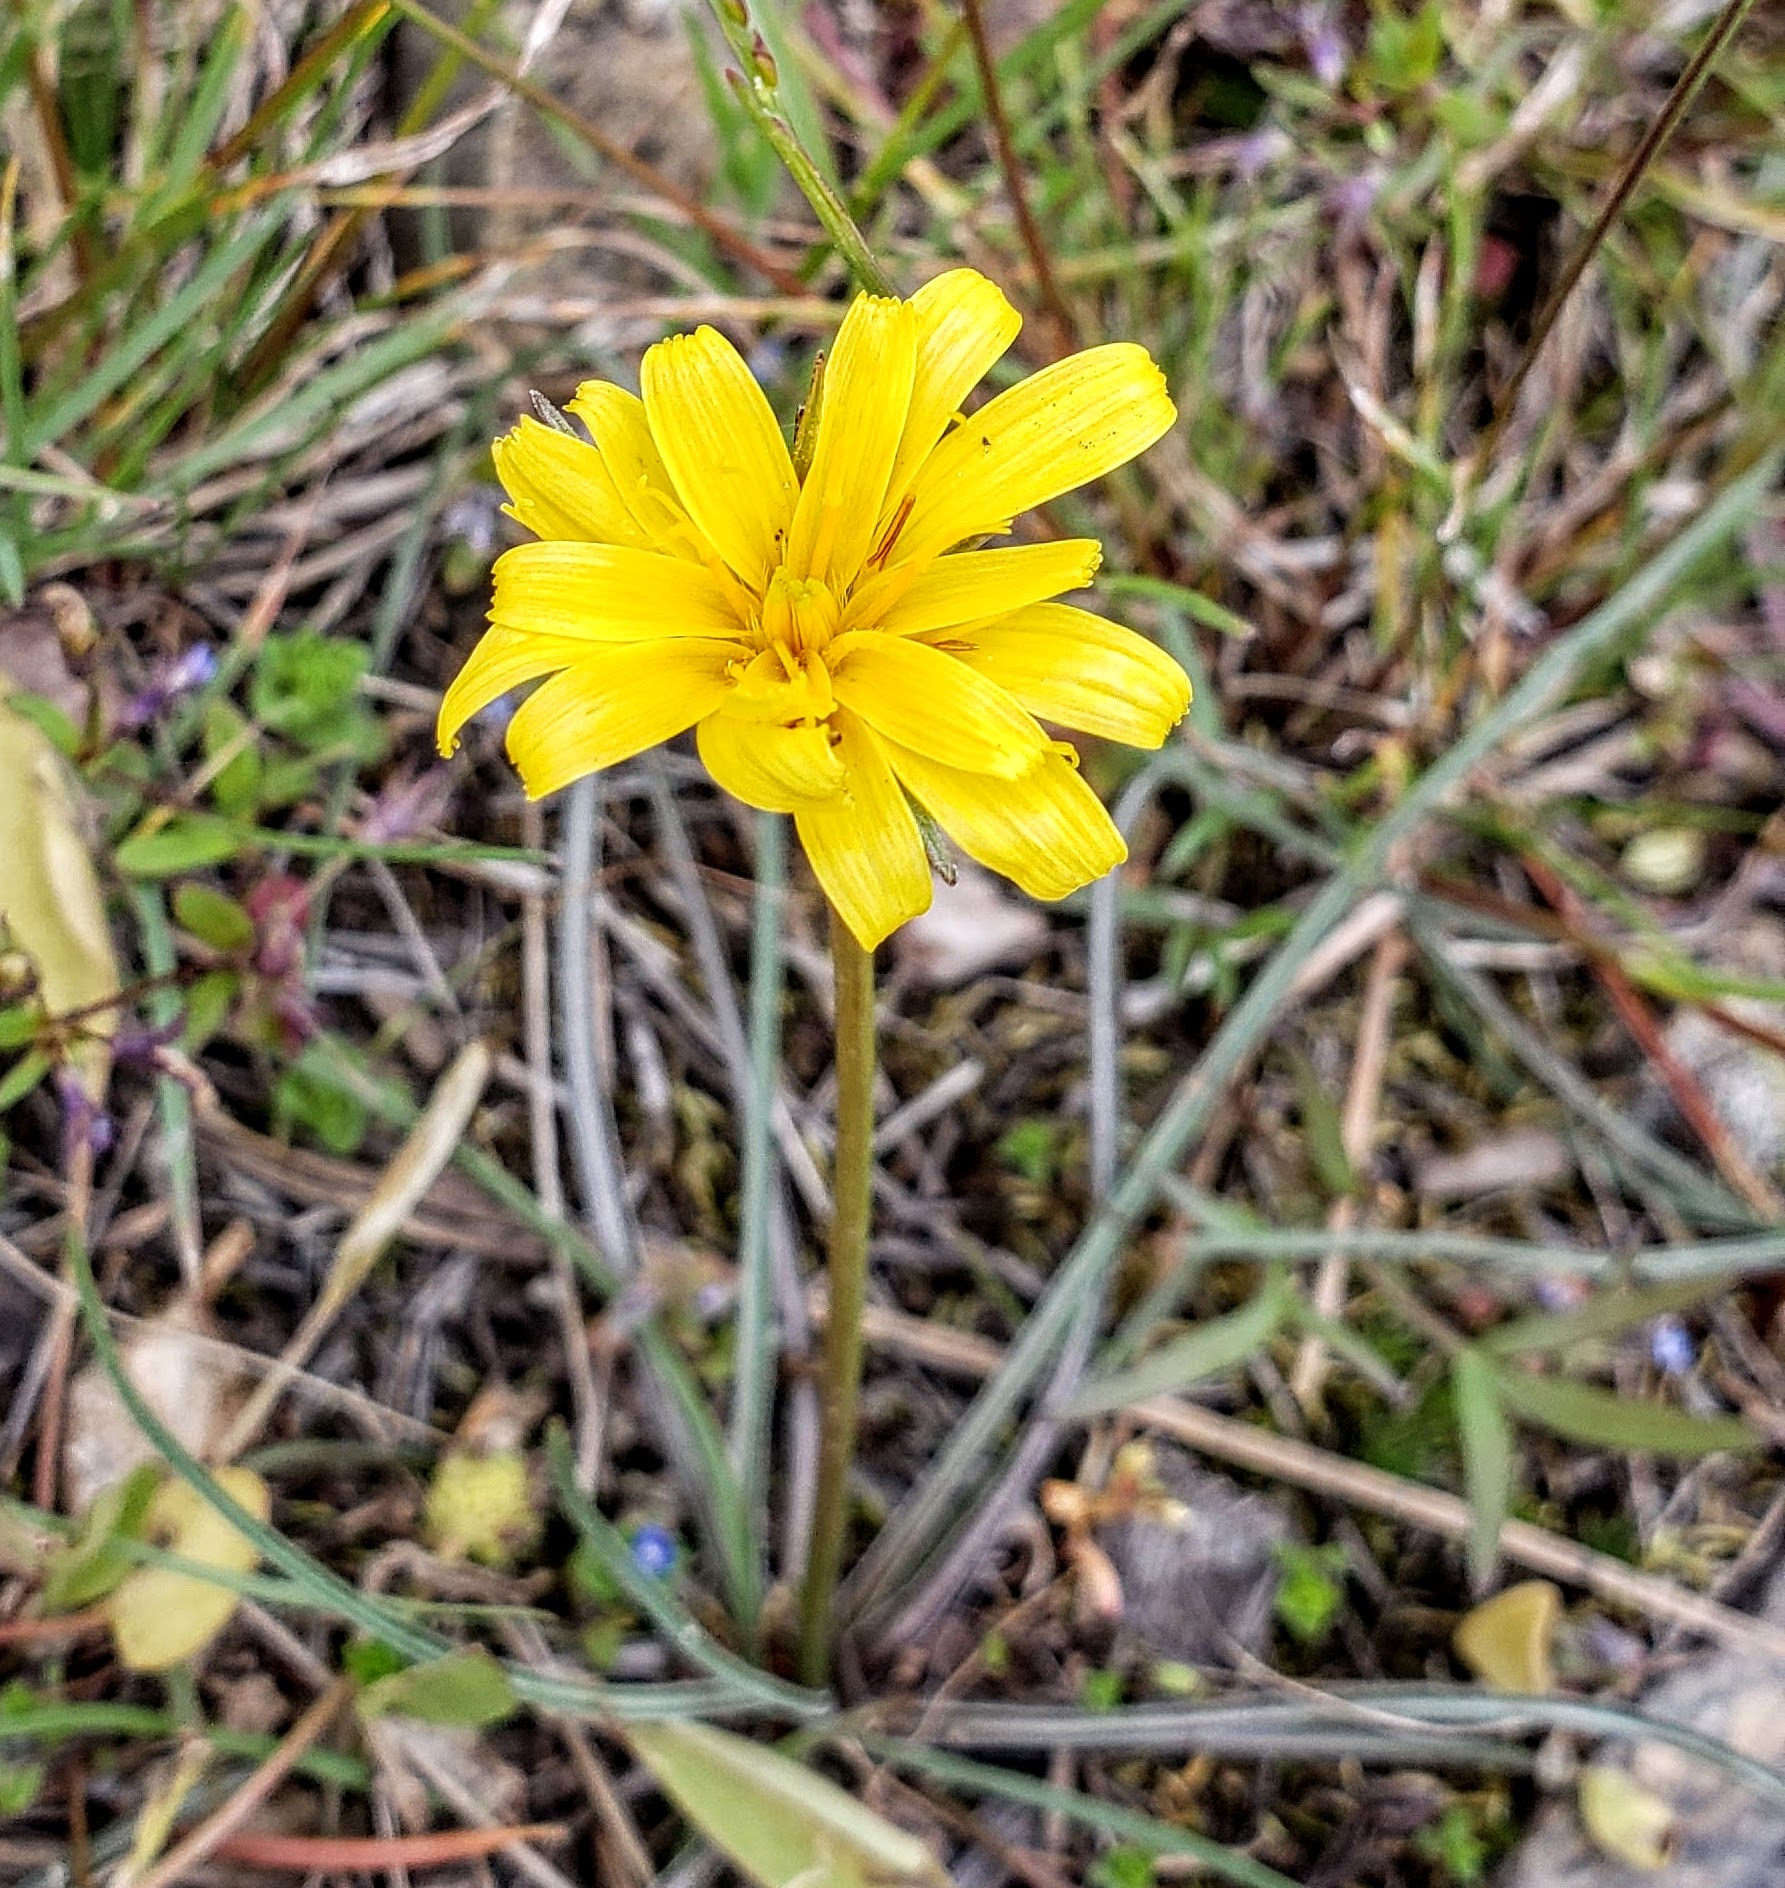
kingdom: Plantae
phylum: Tracheophyta
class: Magnoliopsida
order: Asterales
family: Asteraceae
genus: Microseris
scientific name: Microseris troximoides
